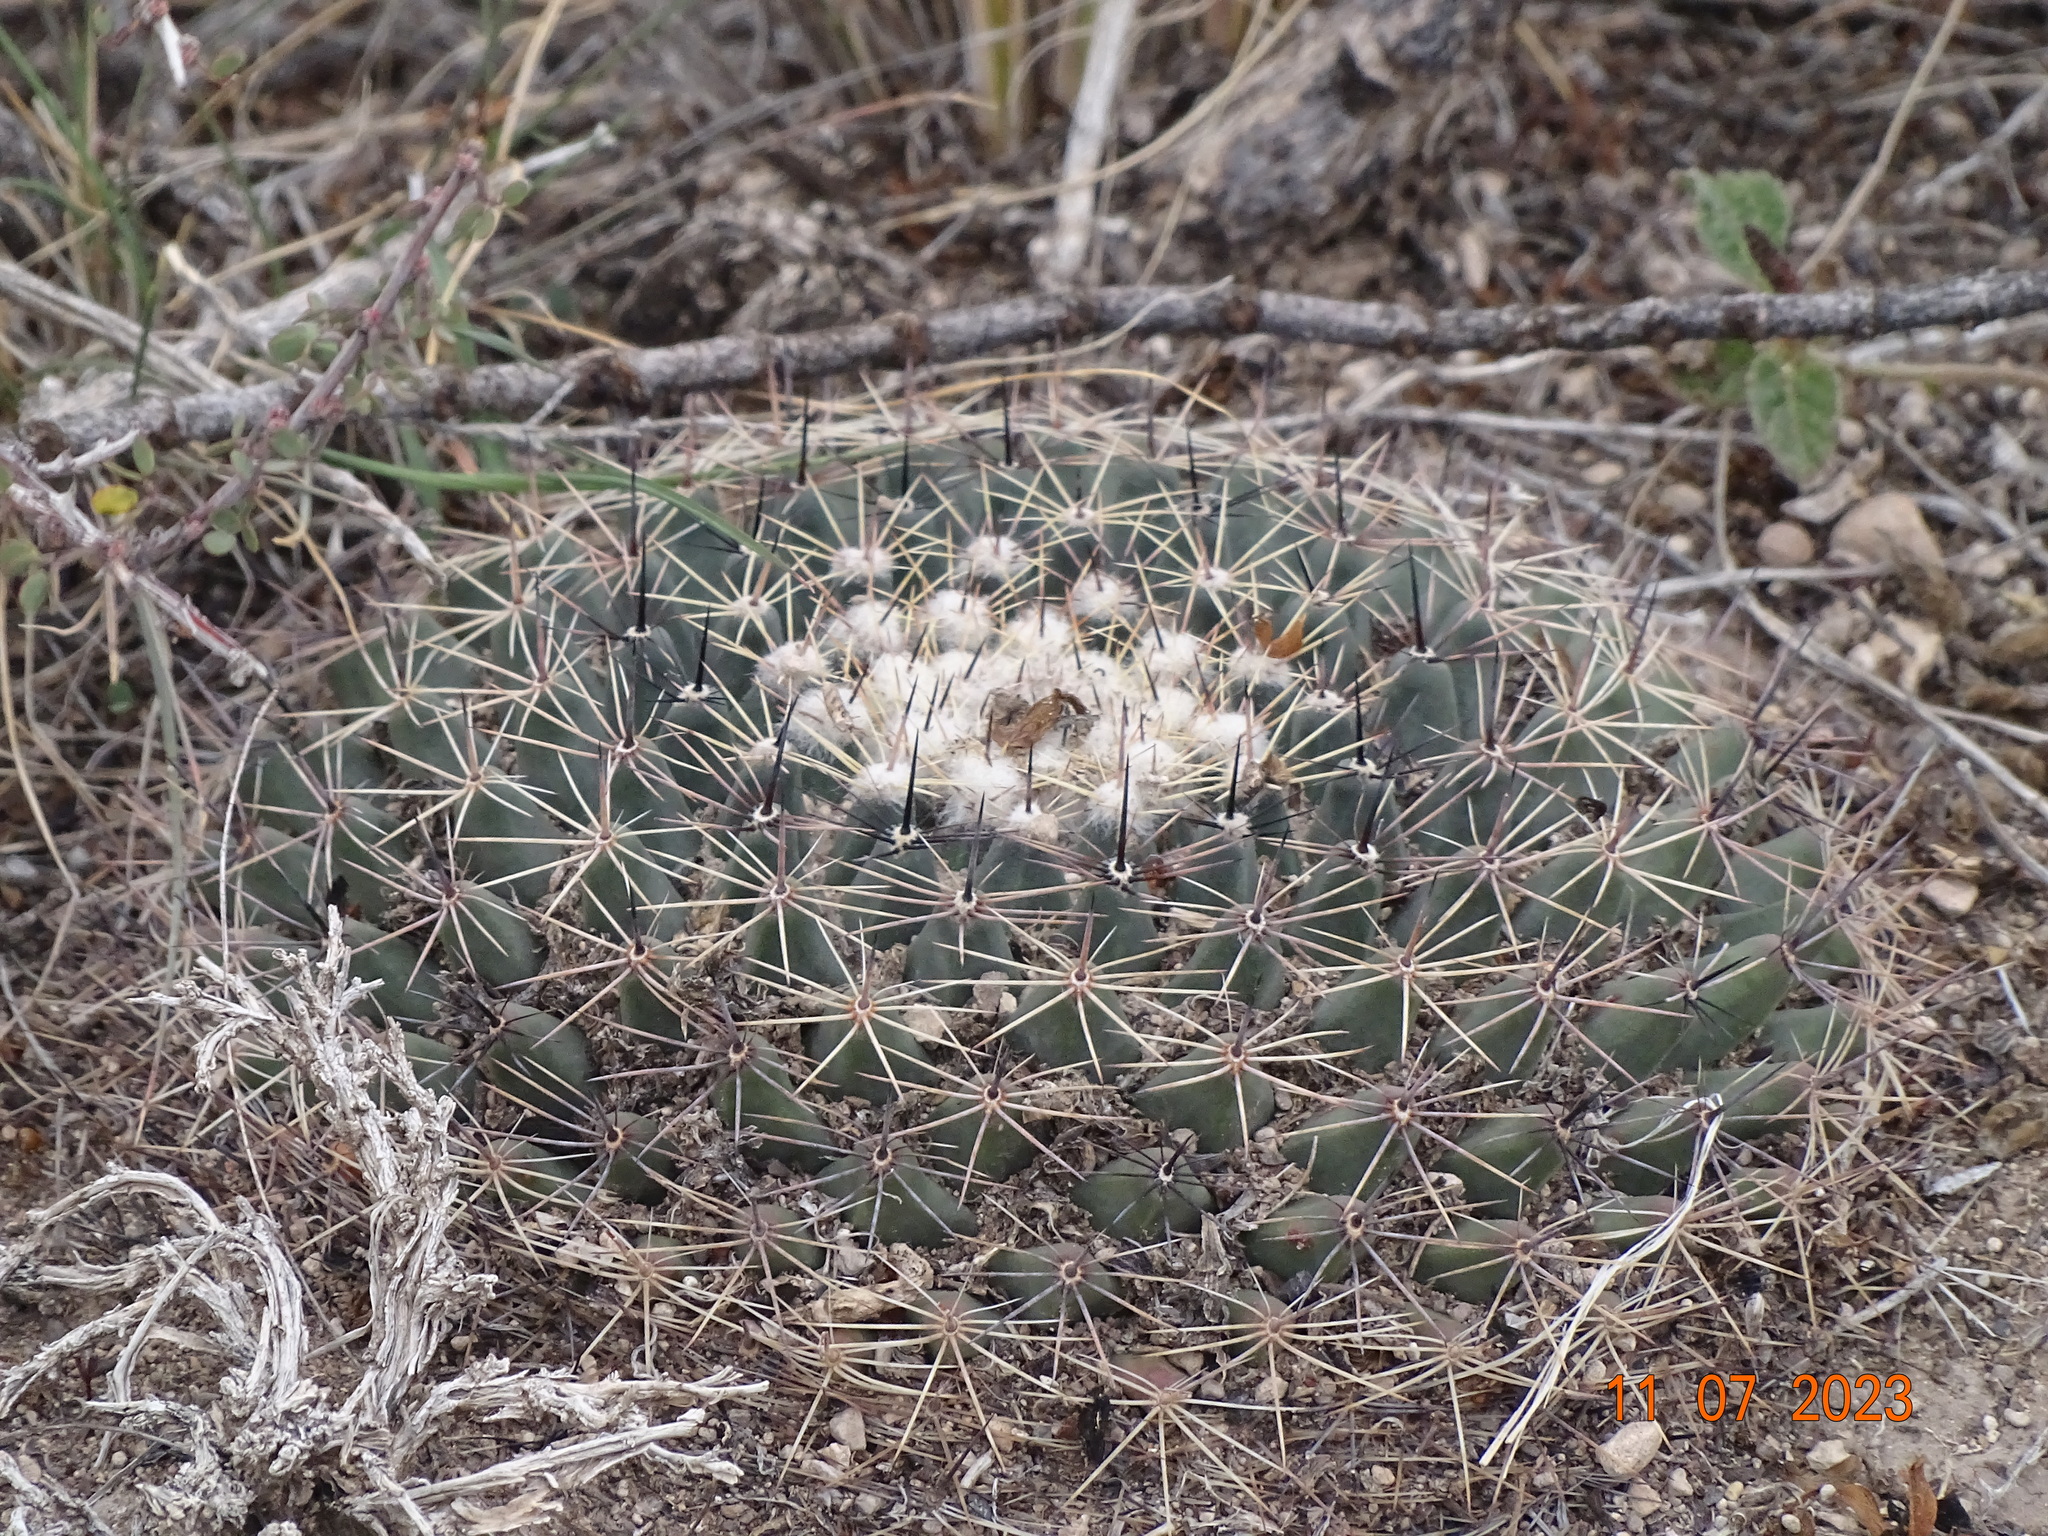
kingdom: Plantae
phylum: Tracheophyta
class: Magnoliopsida
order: Caryophyllales
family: Cactaceae
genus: Mammillaria
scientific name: Mammillaria heyderi
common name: Little nipple cactus
